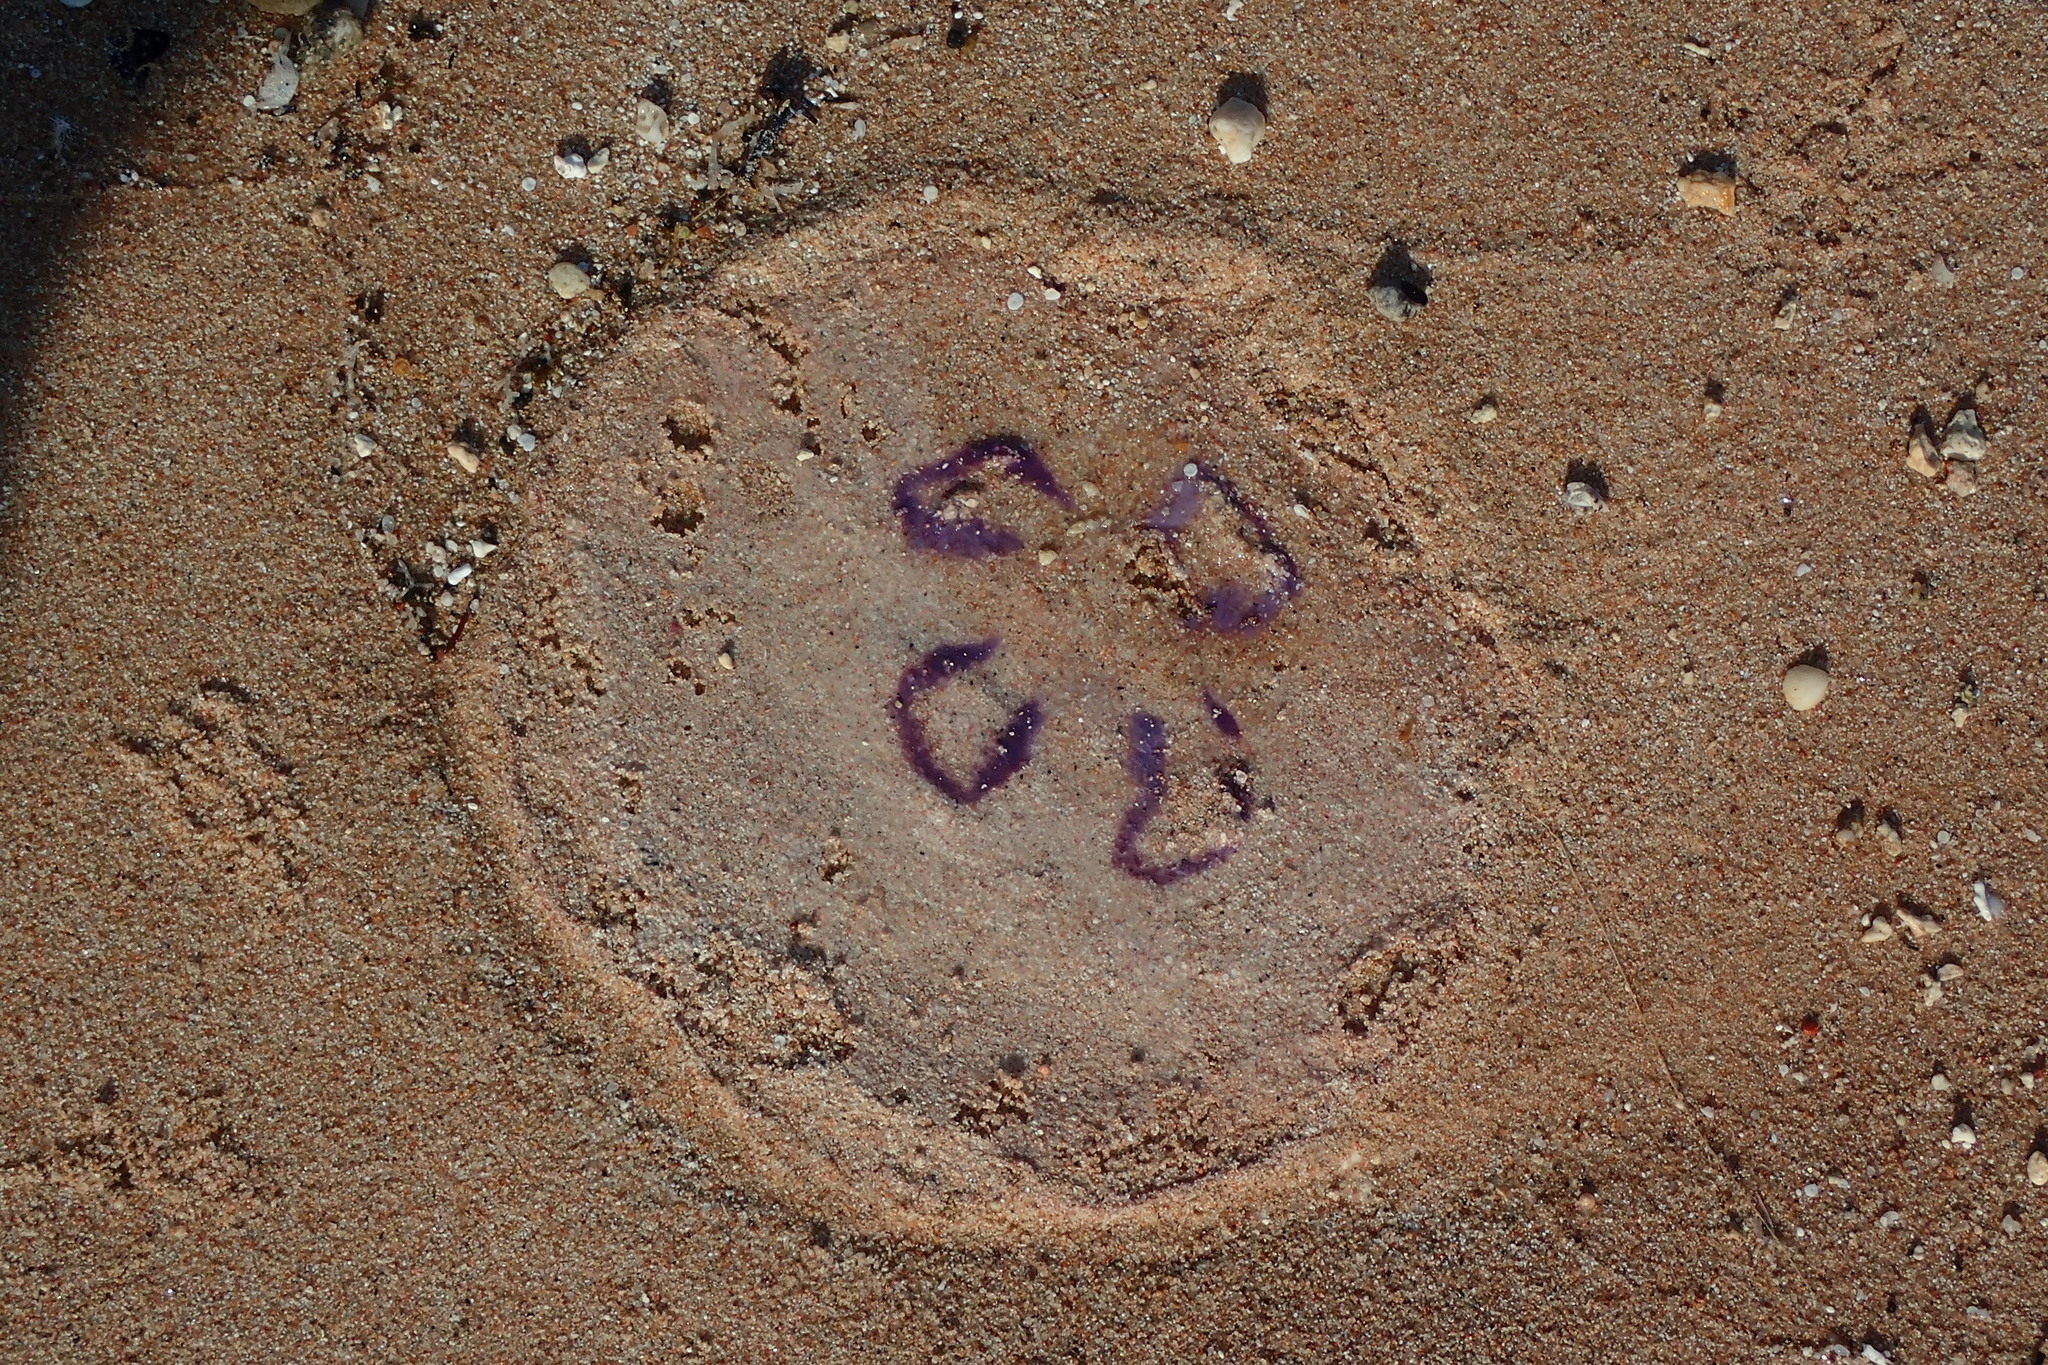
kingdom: Animalia
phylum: Cnidaria
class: Scyphozoa
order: Semaeostomeae
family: Ulmaridae
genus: Aurelia
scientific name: Aurelia solida
